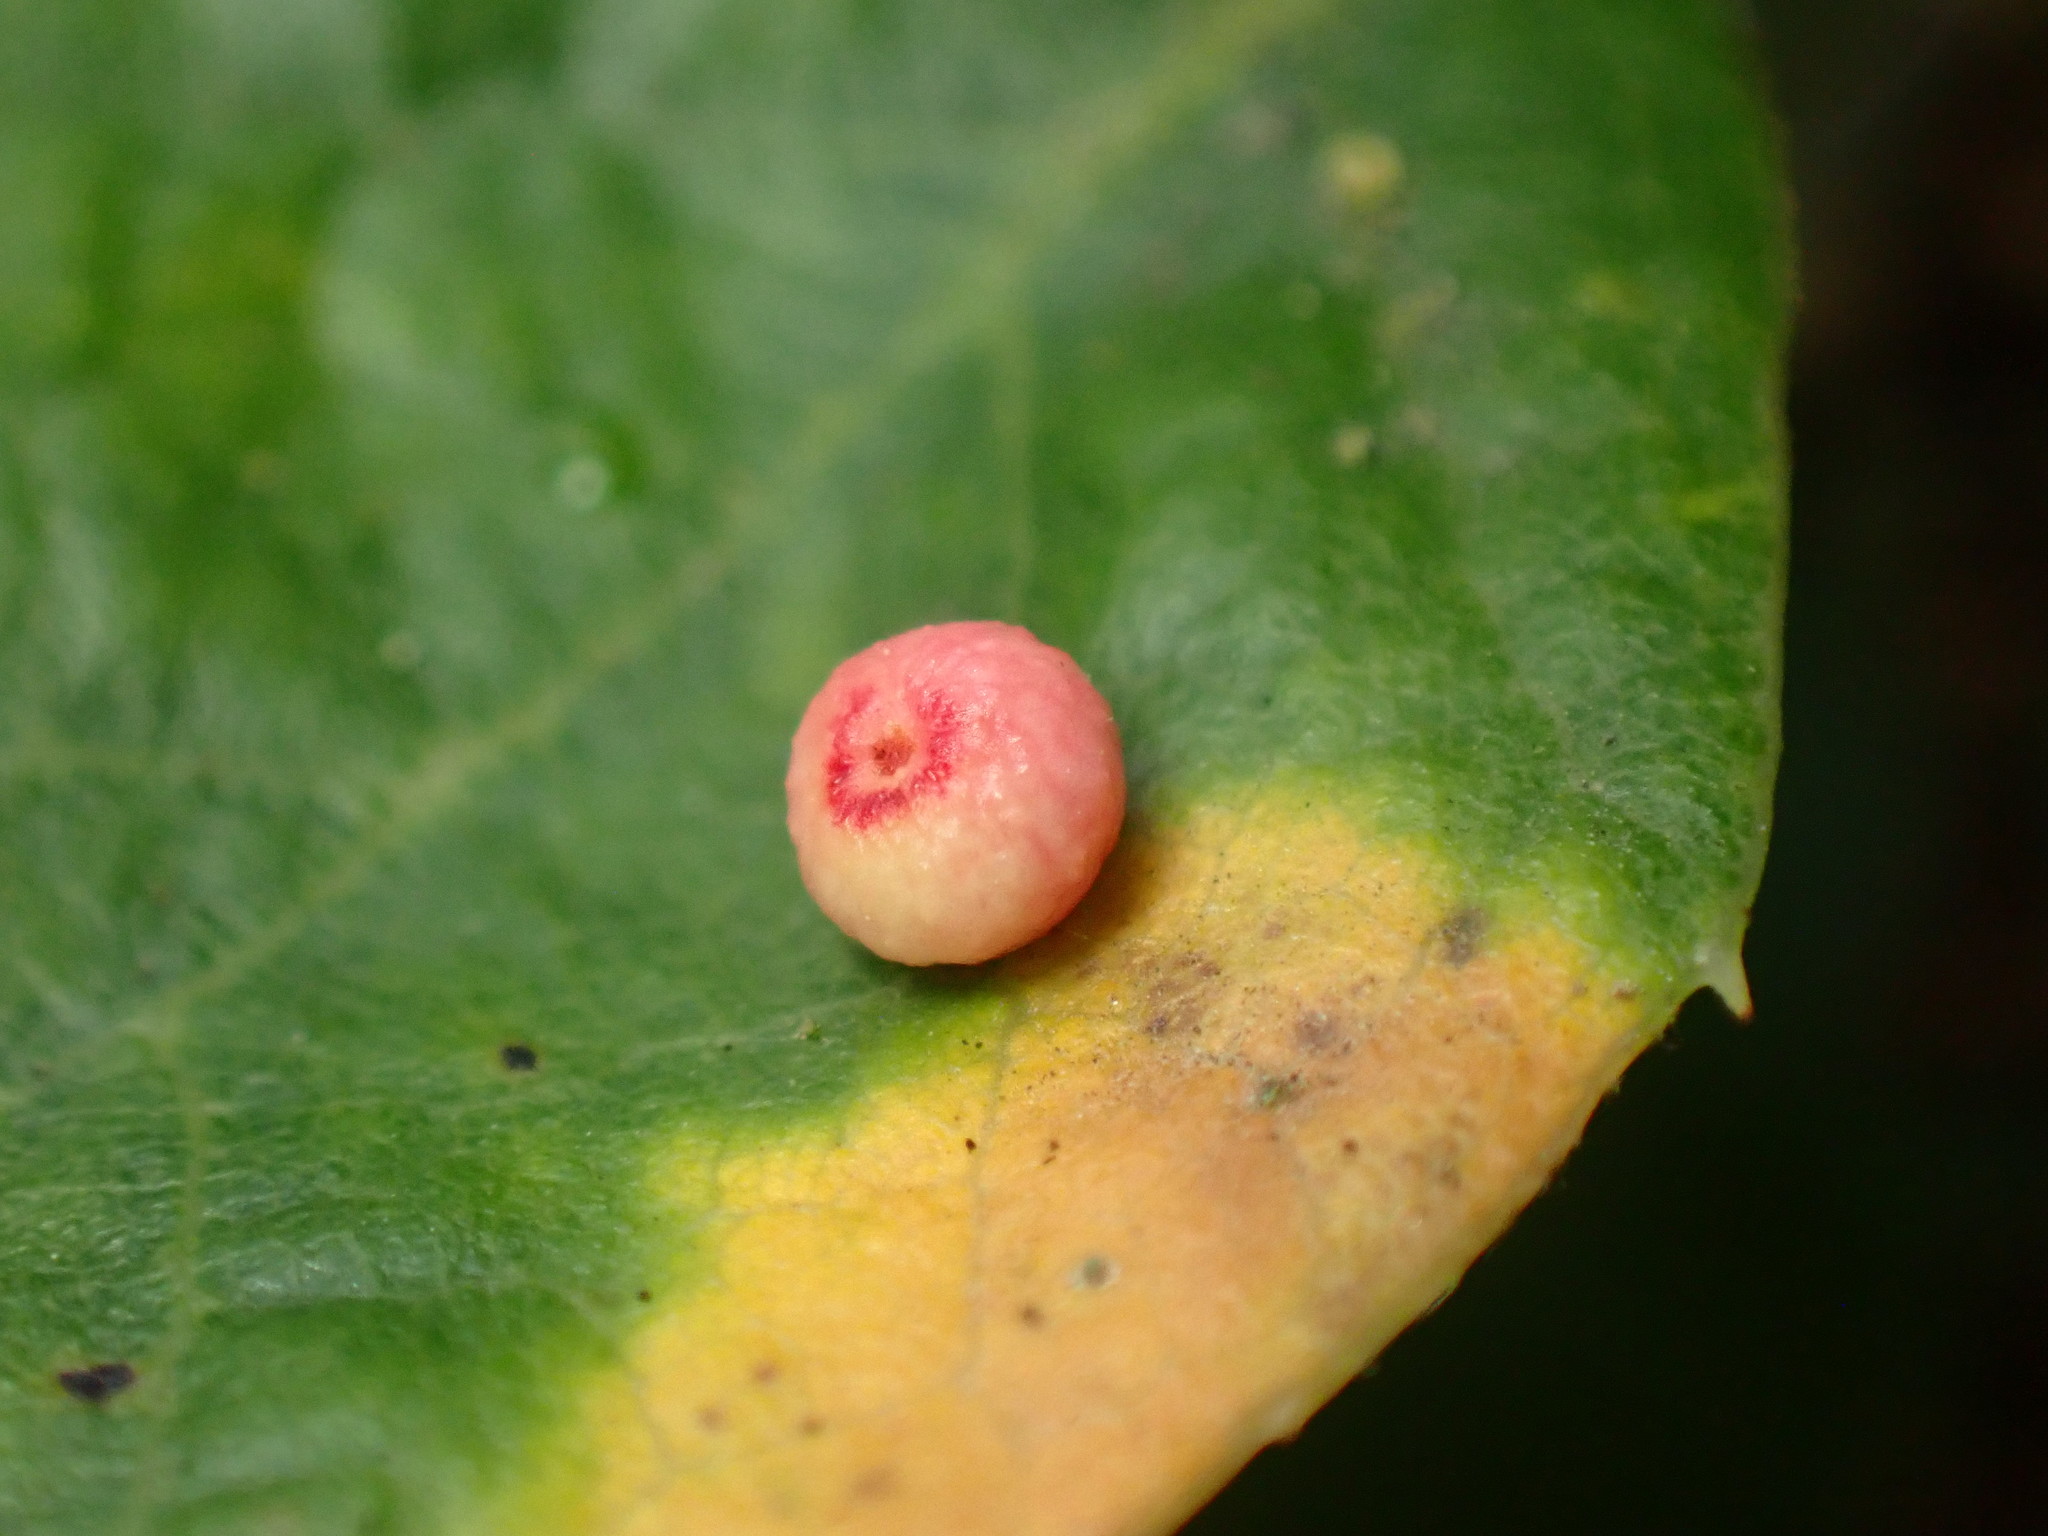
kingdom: Animalia
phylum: Arthropoda
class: Insecta
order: Hymenoptera
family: Cynipidae
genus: Dryocosmus
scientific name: Dryocosmus
